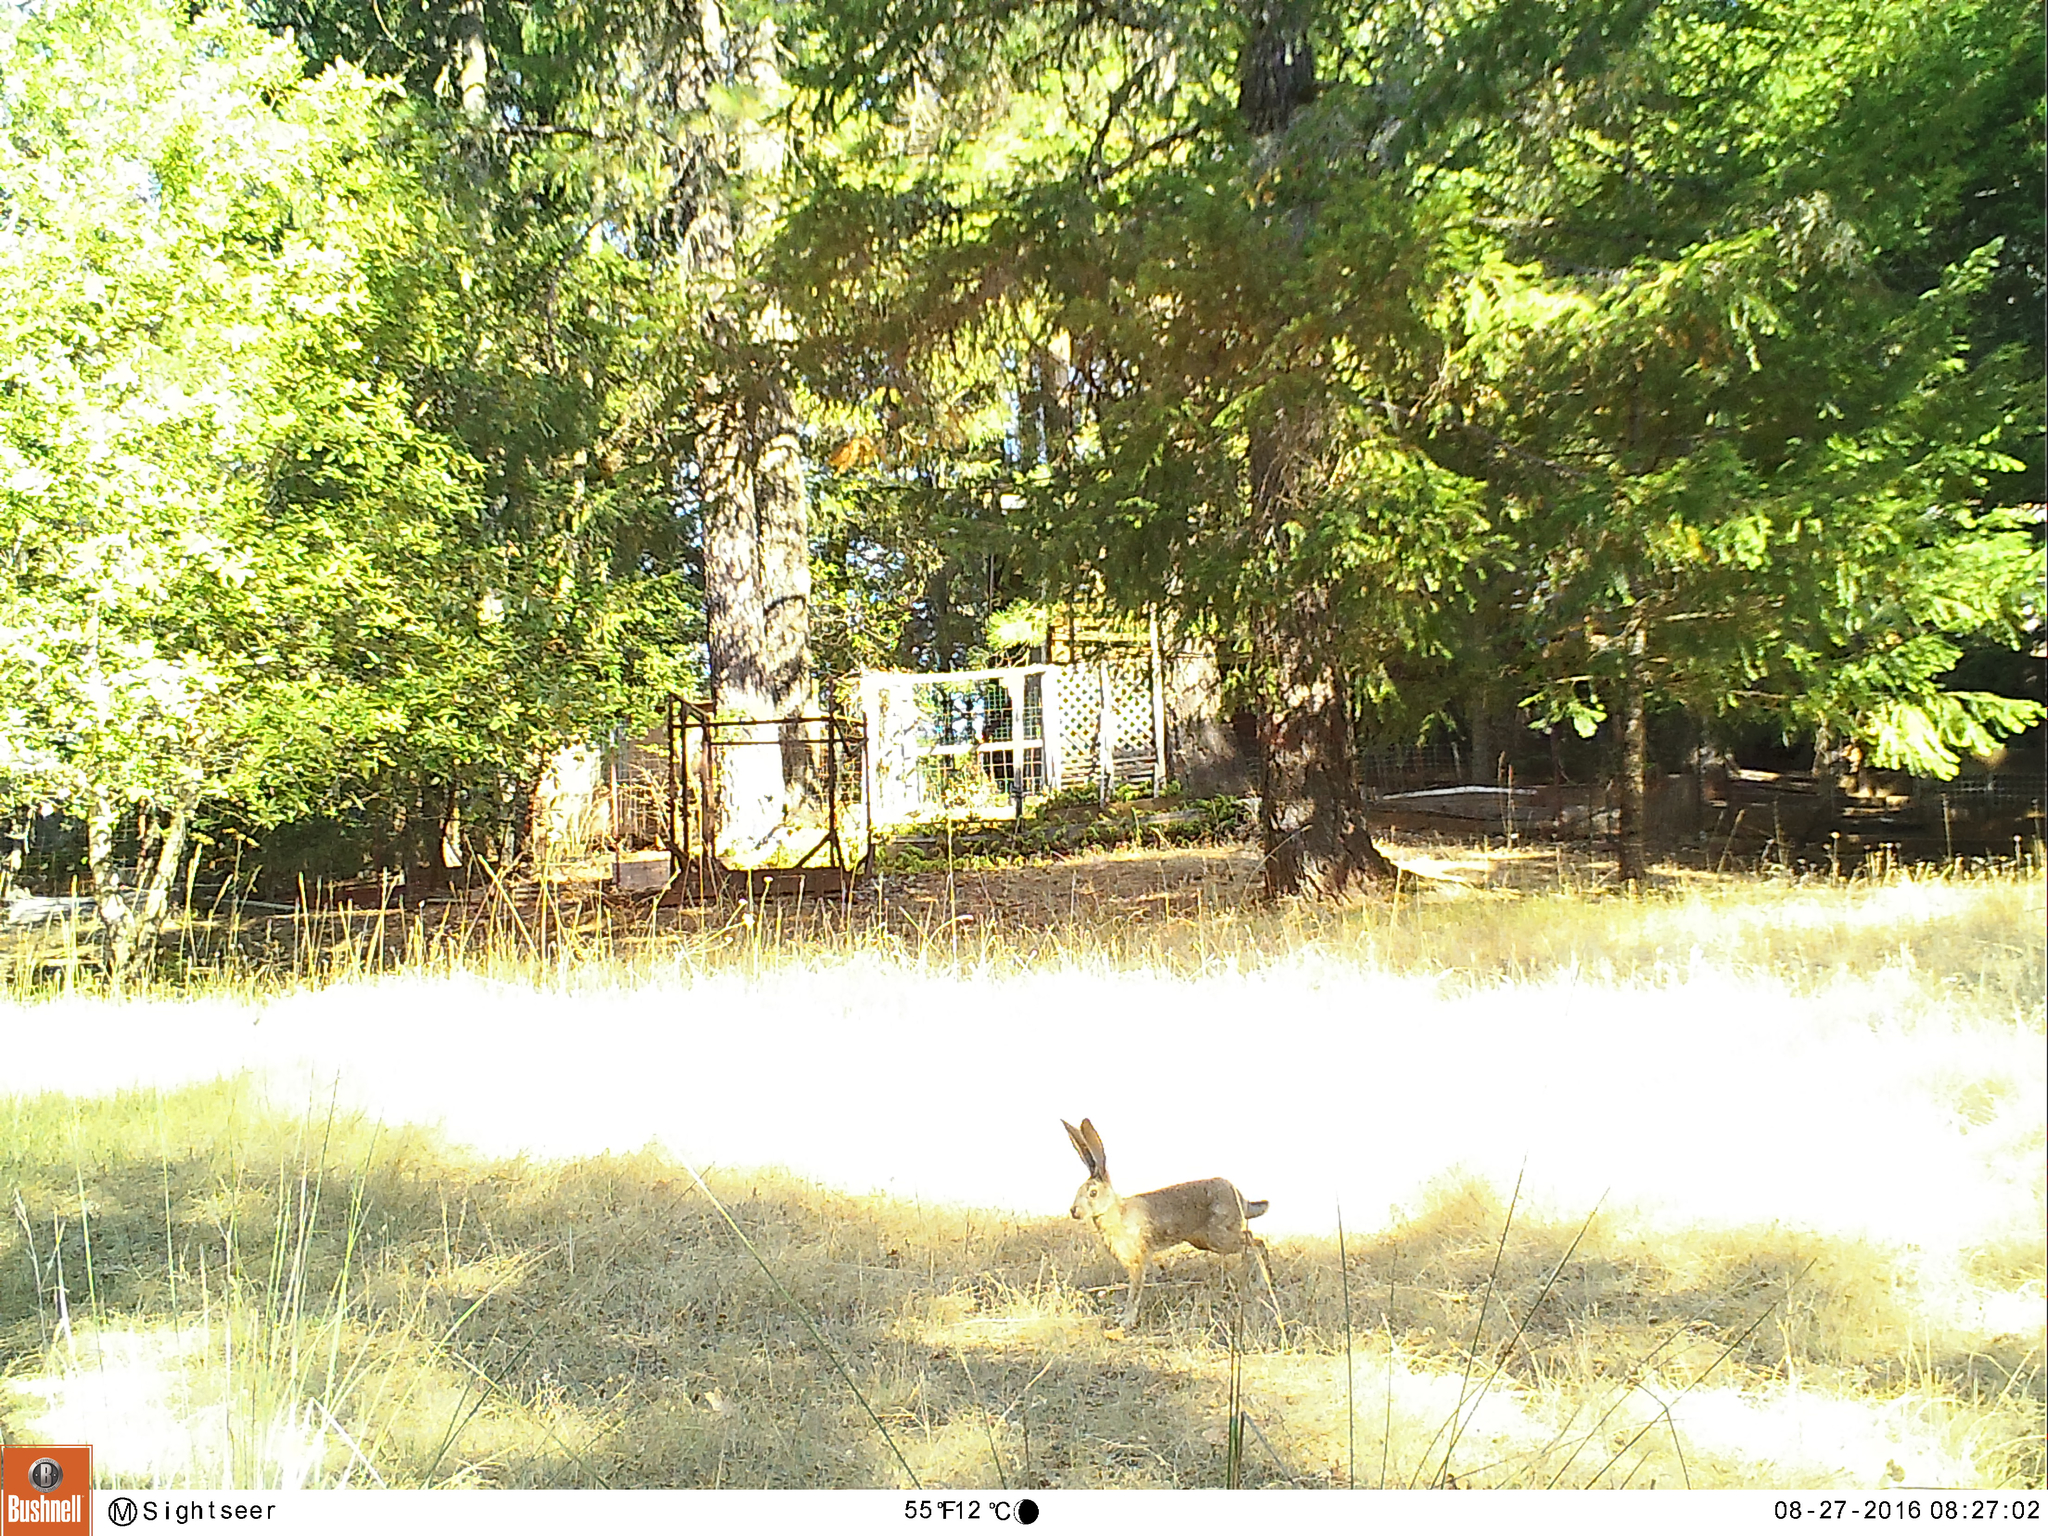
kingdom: Animalia
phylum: Chordata
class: Mammalia
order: Lagomorpha
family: Leporidae
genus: Lepus
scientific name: Lepus californicus
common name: Black-tailed jackrabbit
